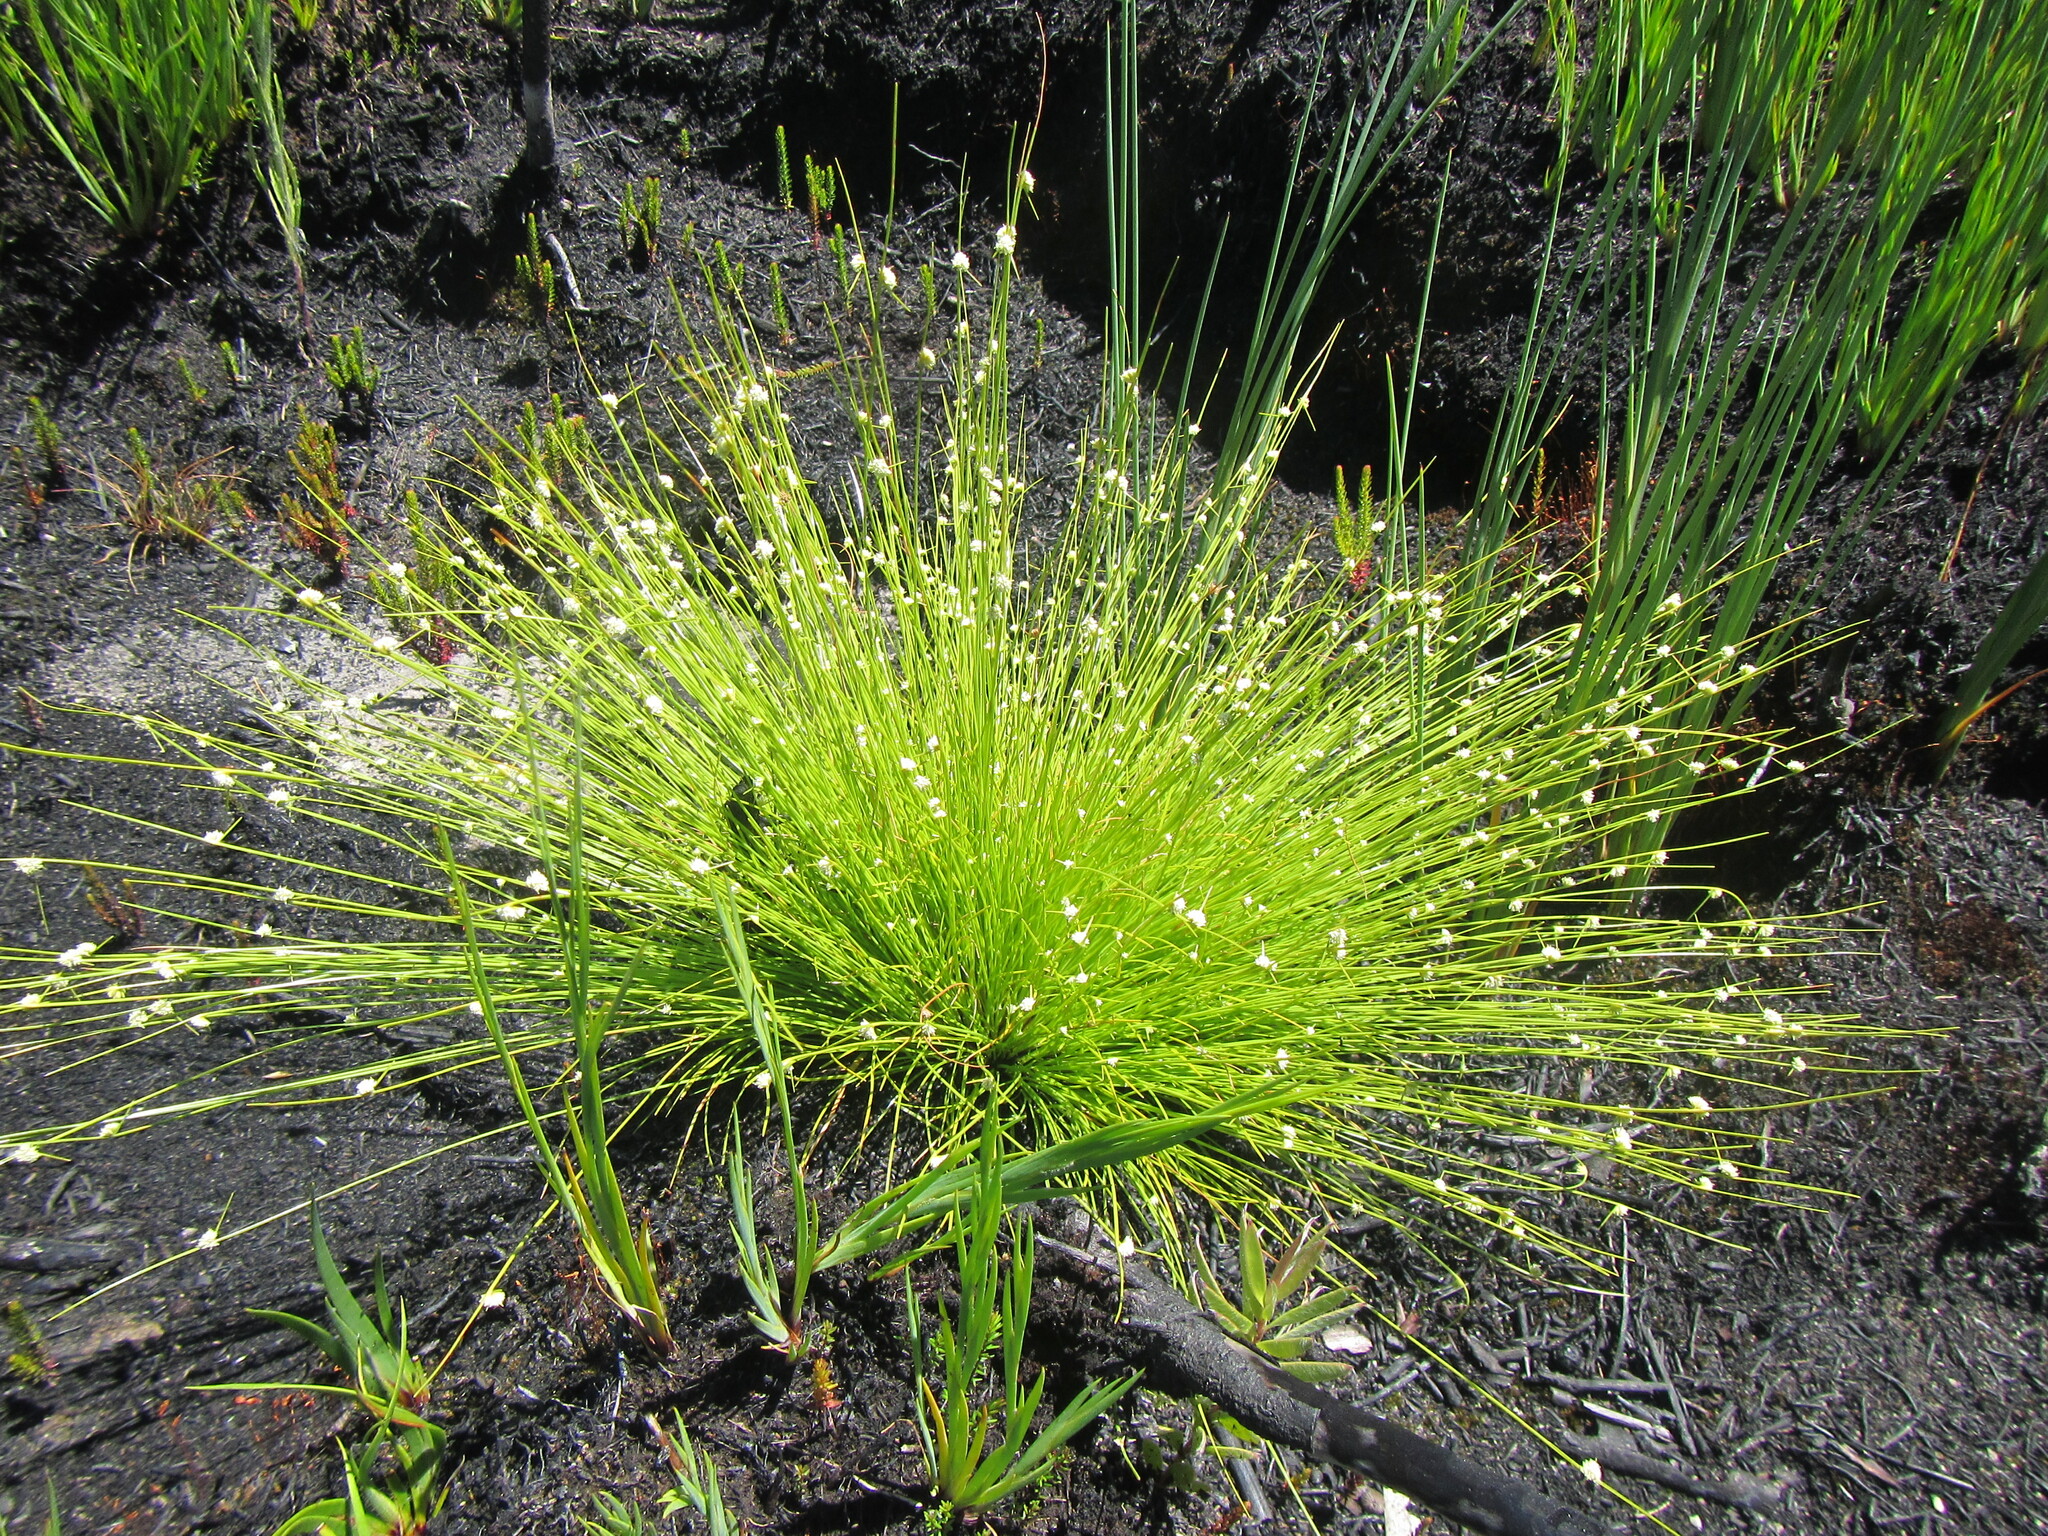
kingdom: Plantae
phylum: Tracheophyta
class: Liliopsida
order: Poales
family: Cyperaceae
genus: Ficinia
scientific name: Ficinia minutiflora
